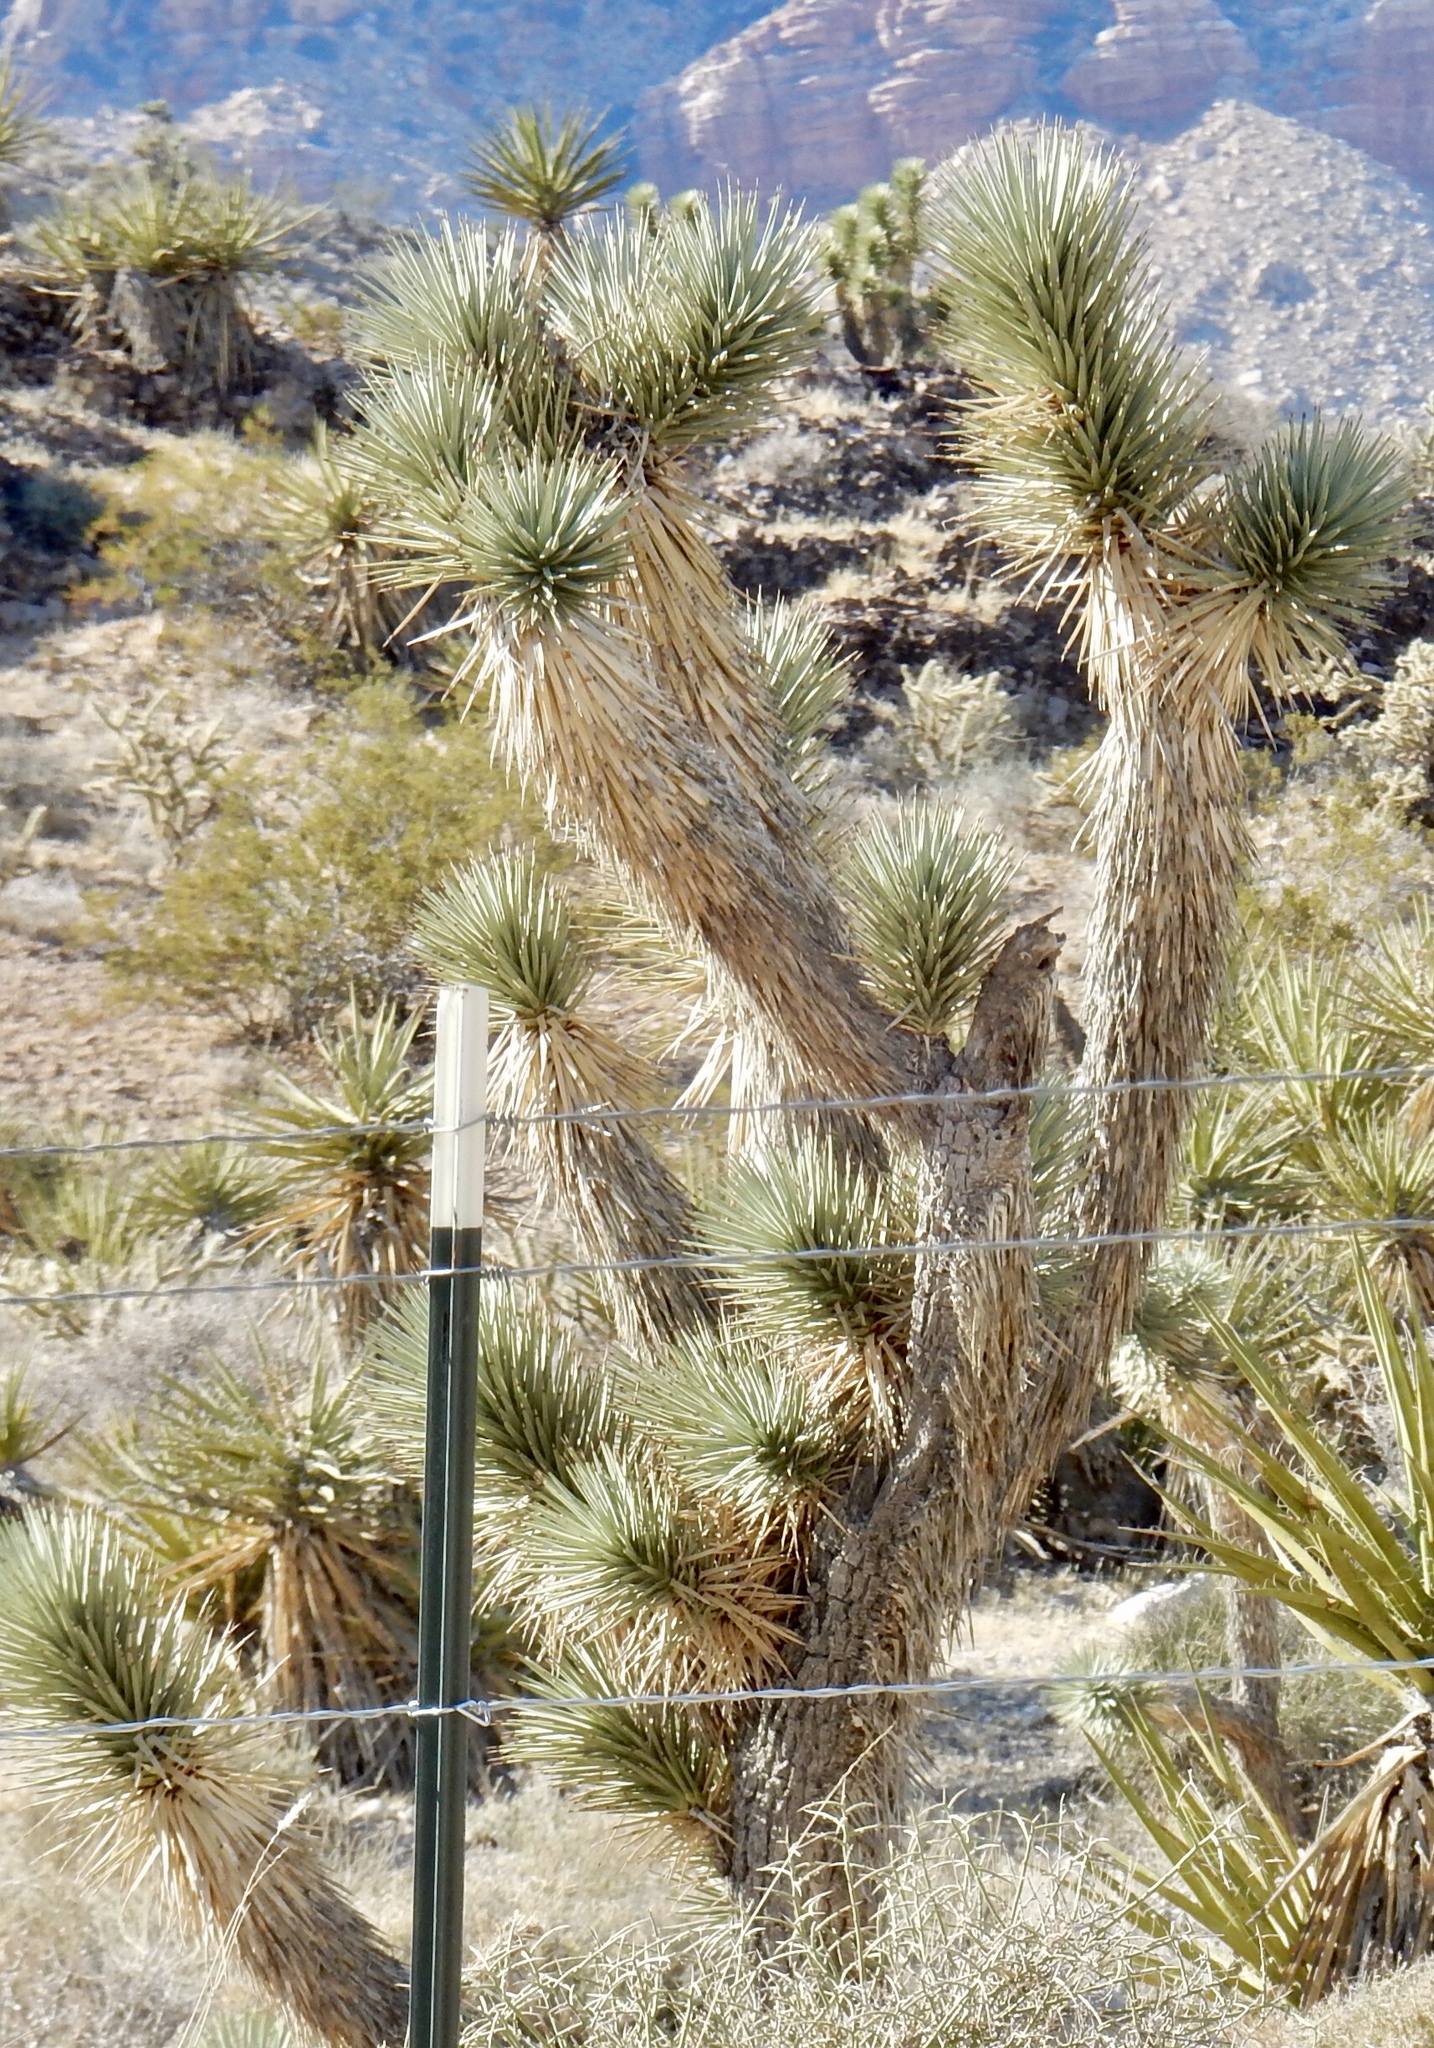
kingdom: Plantae
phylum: Tracheophyta
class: Liliopsida
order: Asparagales
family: Asparagaceae
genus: Yucca
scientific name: Yucca brevifolia
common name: Joshua tree
